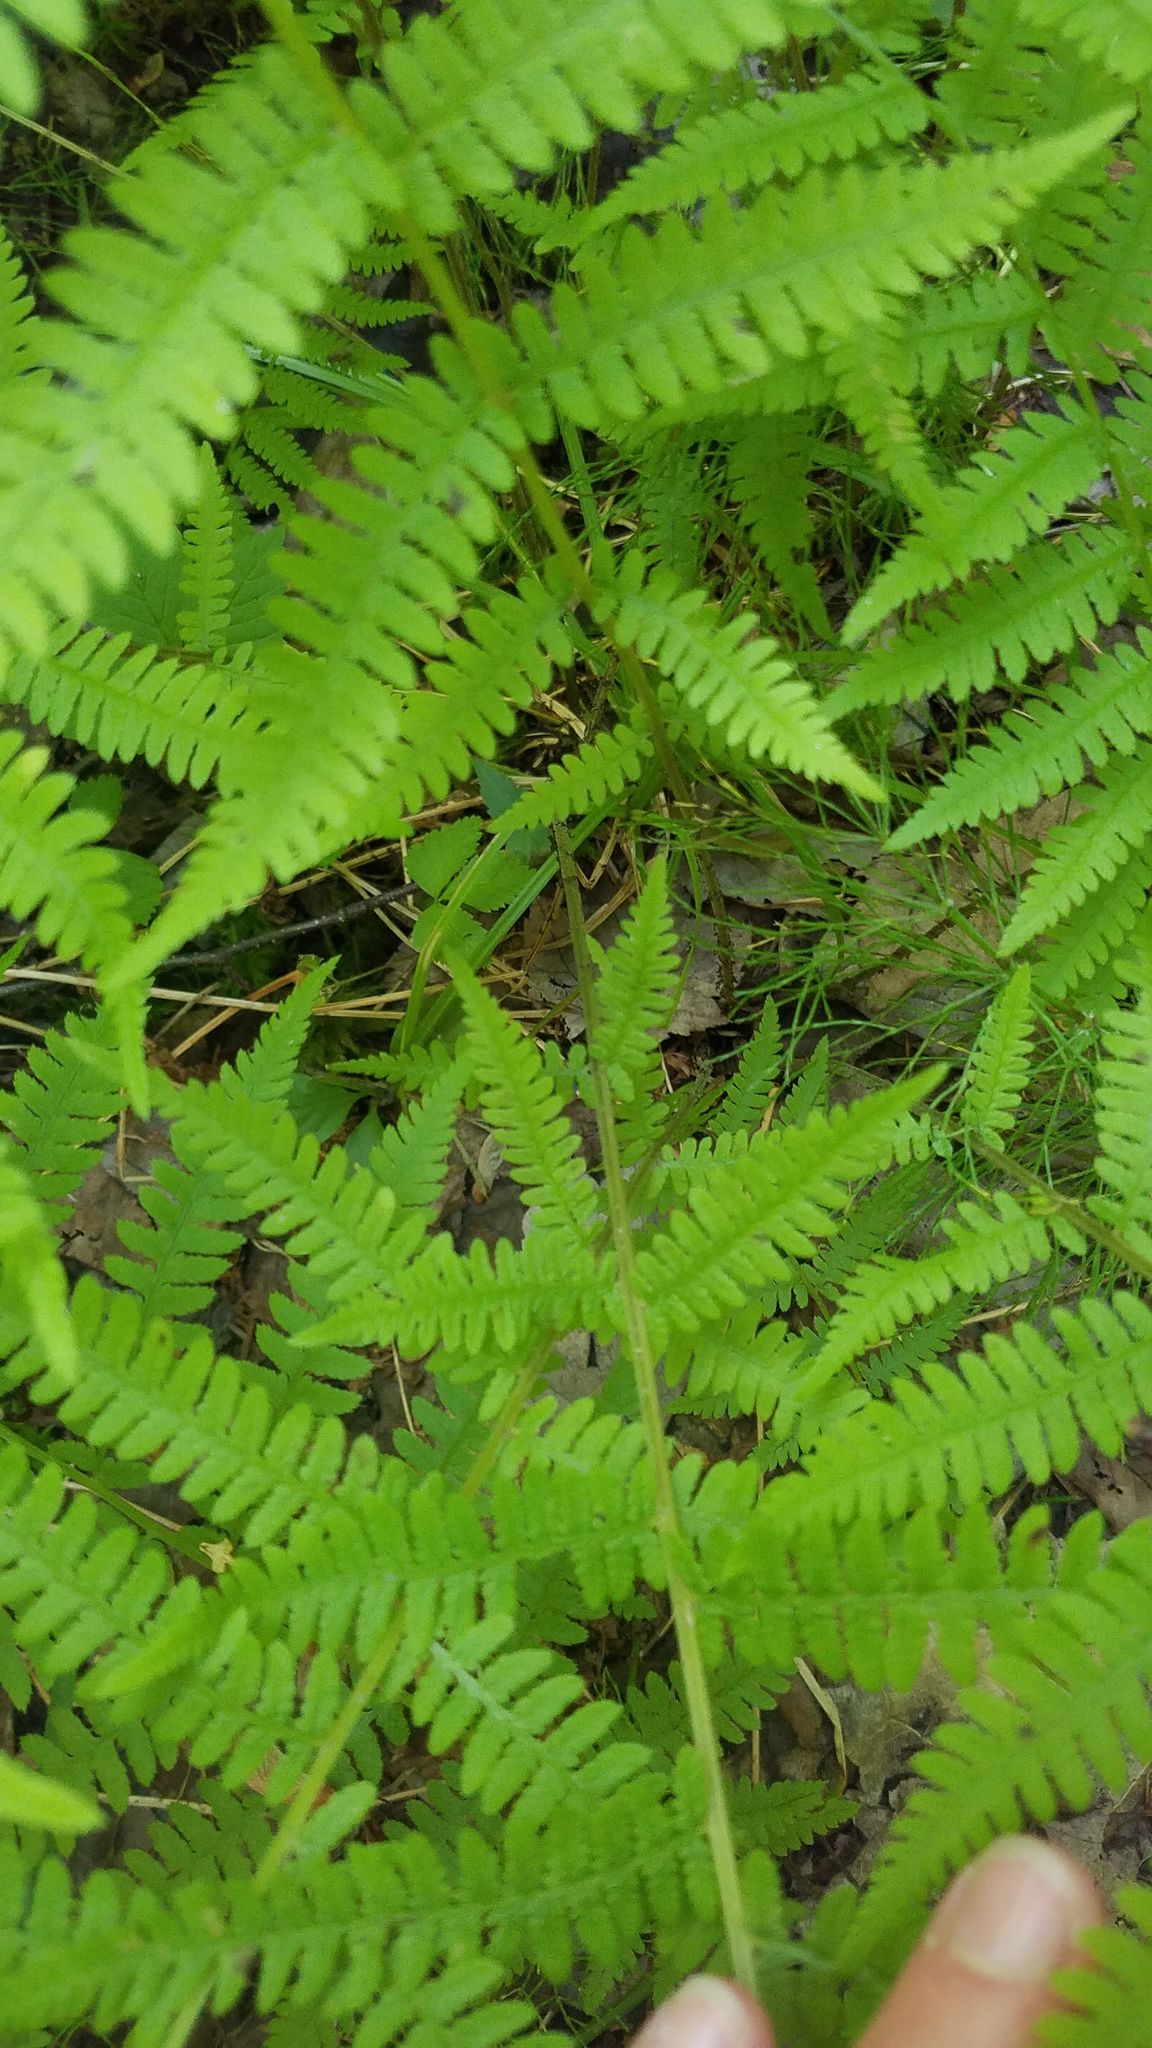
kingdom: Plantae
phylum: Tracheophyta
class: Polypodiopsida
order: Polypodiales
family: Athyriaceae
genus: Athyrium
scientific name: Athyrium angustum
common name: Northern lady fern
